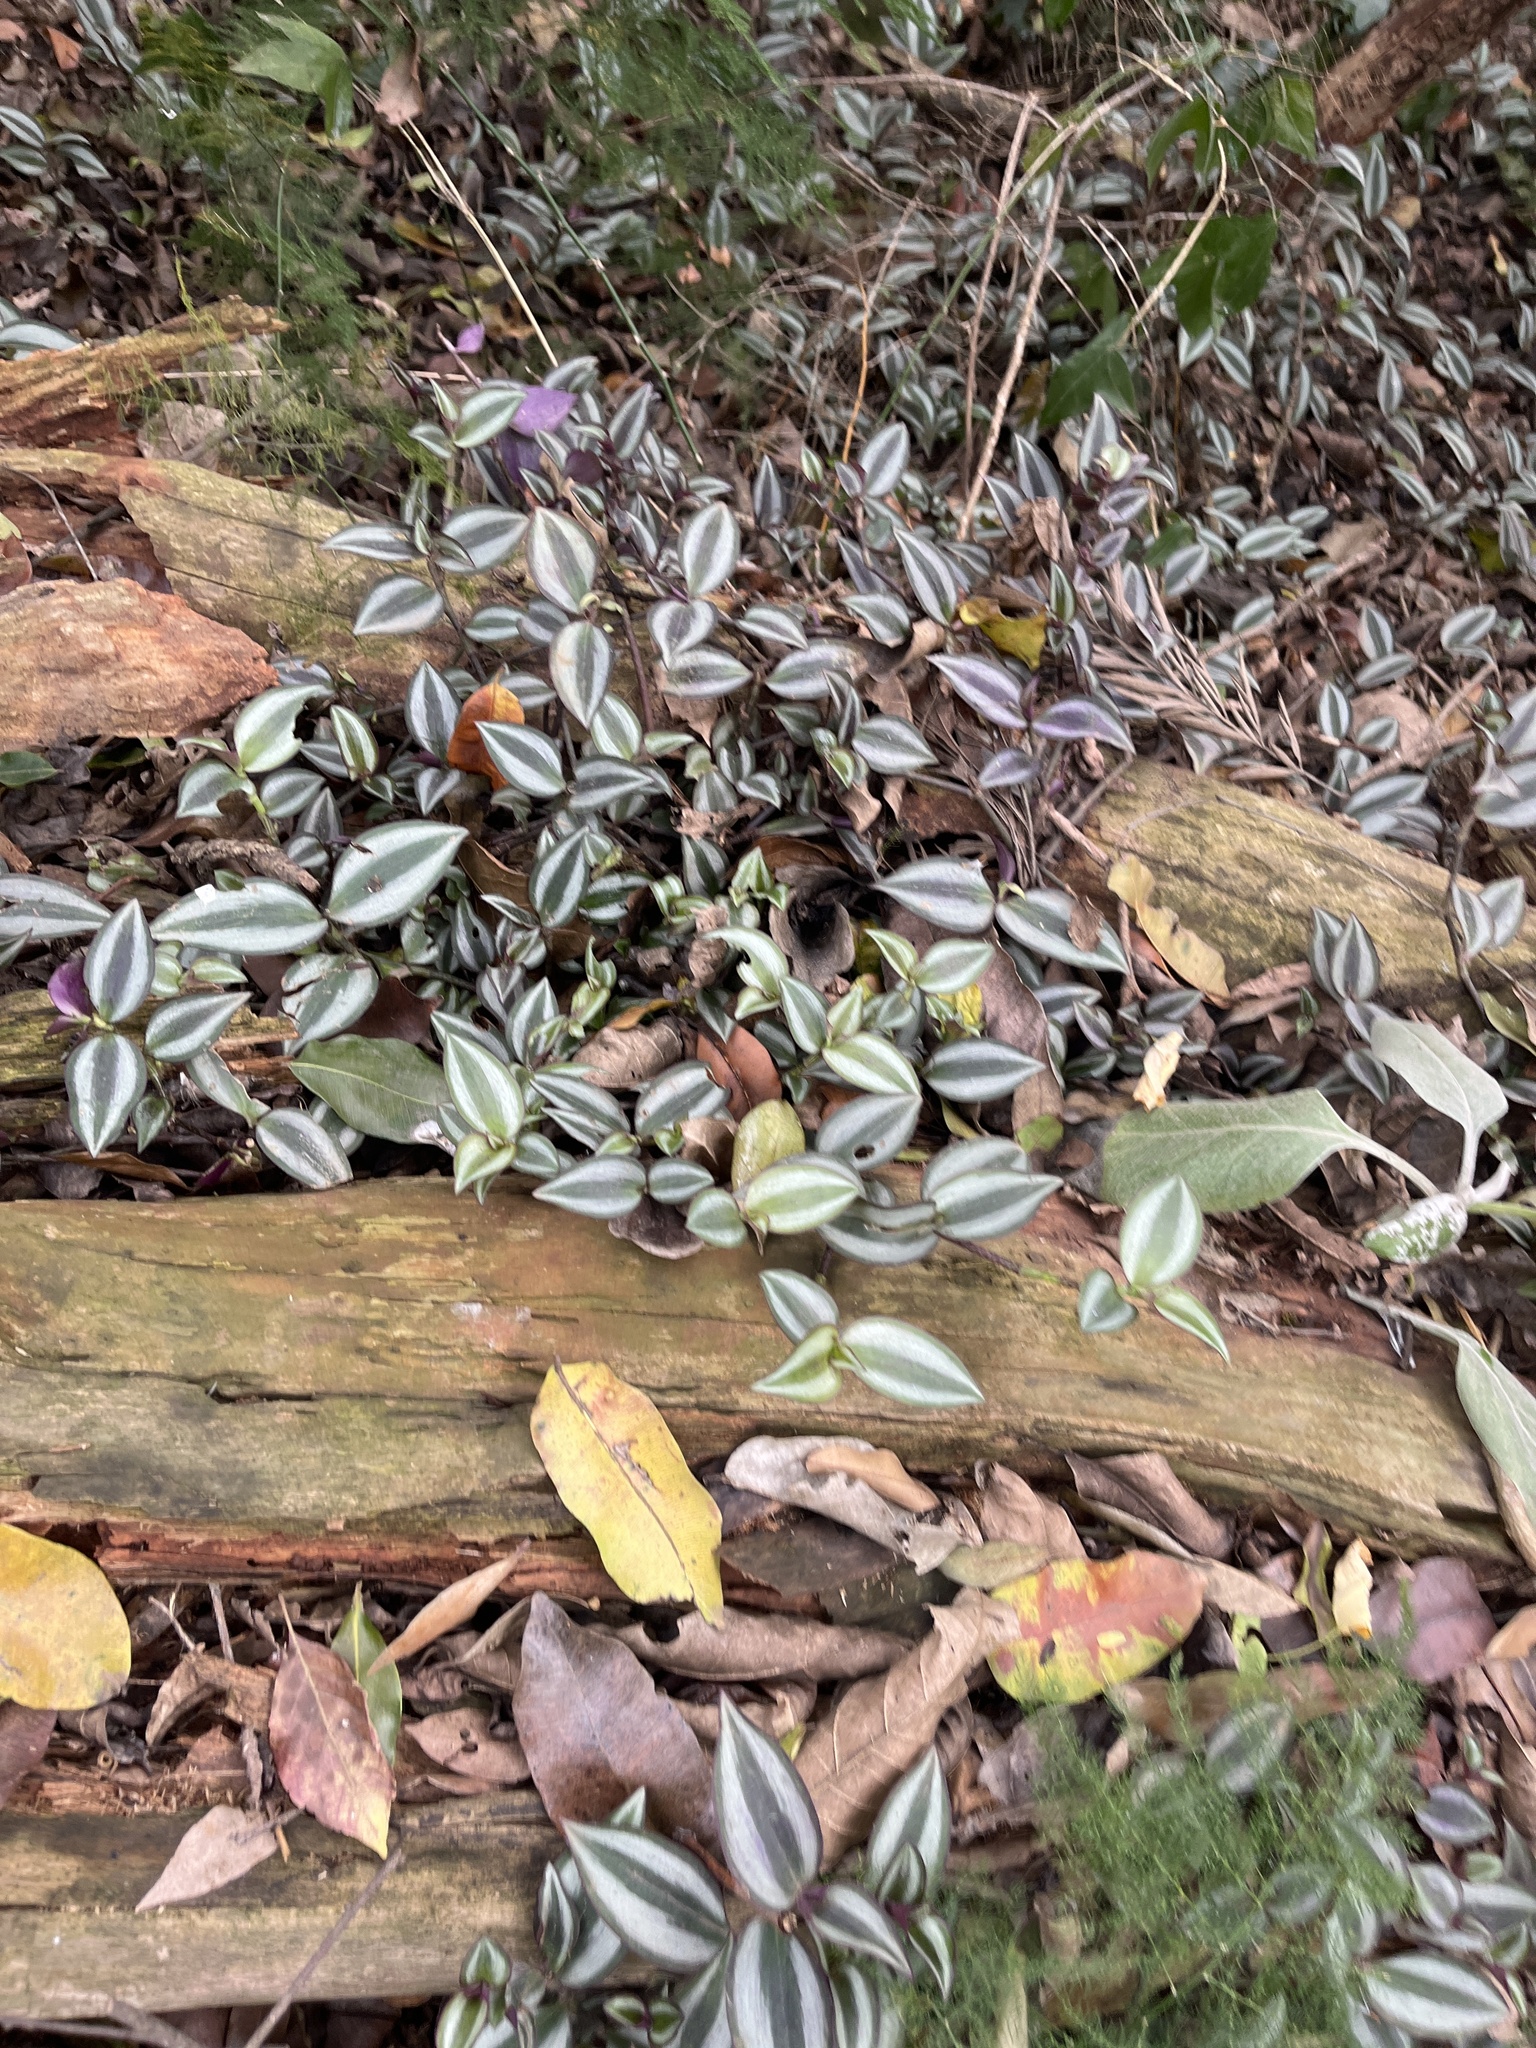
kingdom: Plantae
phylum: Tracheophyta
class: Liliopsida
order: Commelinales
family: Commelinaceae
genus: Tradescantia
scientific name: Tradescantia zebrina
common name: Inchplant
